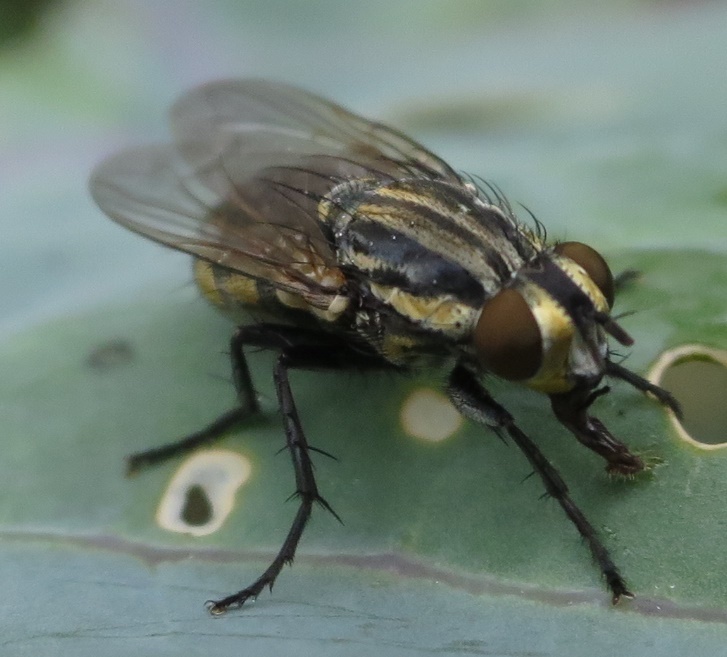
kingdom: Animalia
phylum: Arthropoda
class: Insecta
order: Diptera
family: Sarcophagidae
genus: Oxysarcodexia
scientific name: Oxysarcodexia varia
